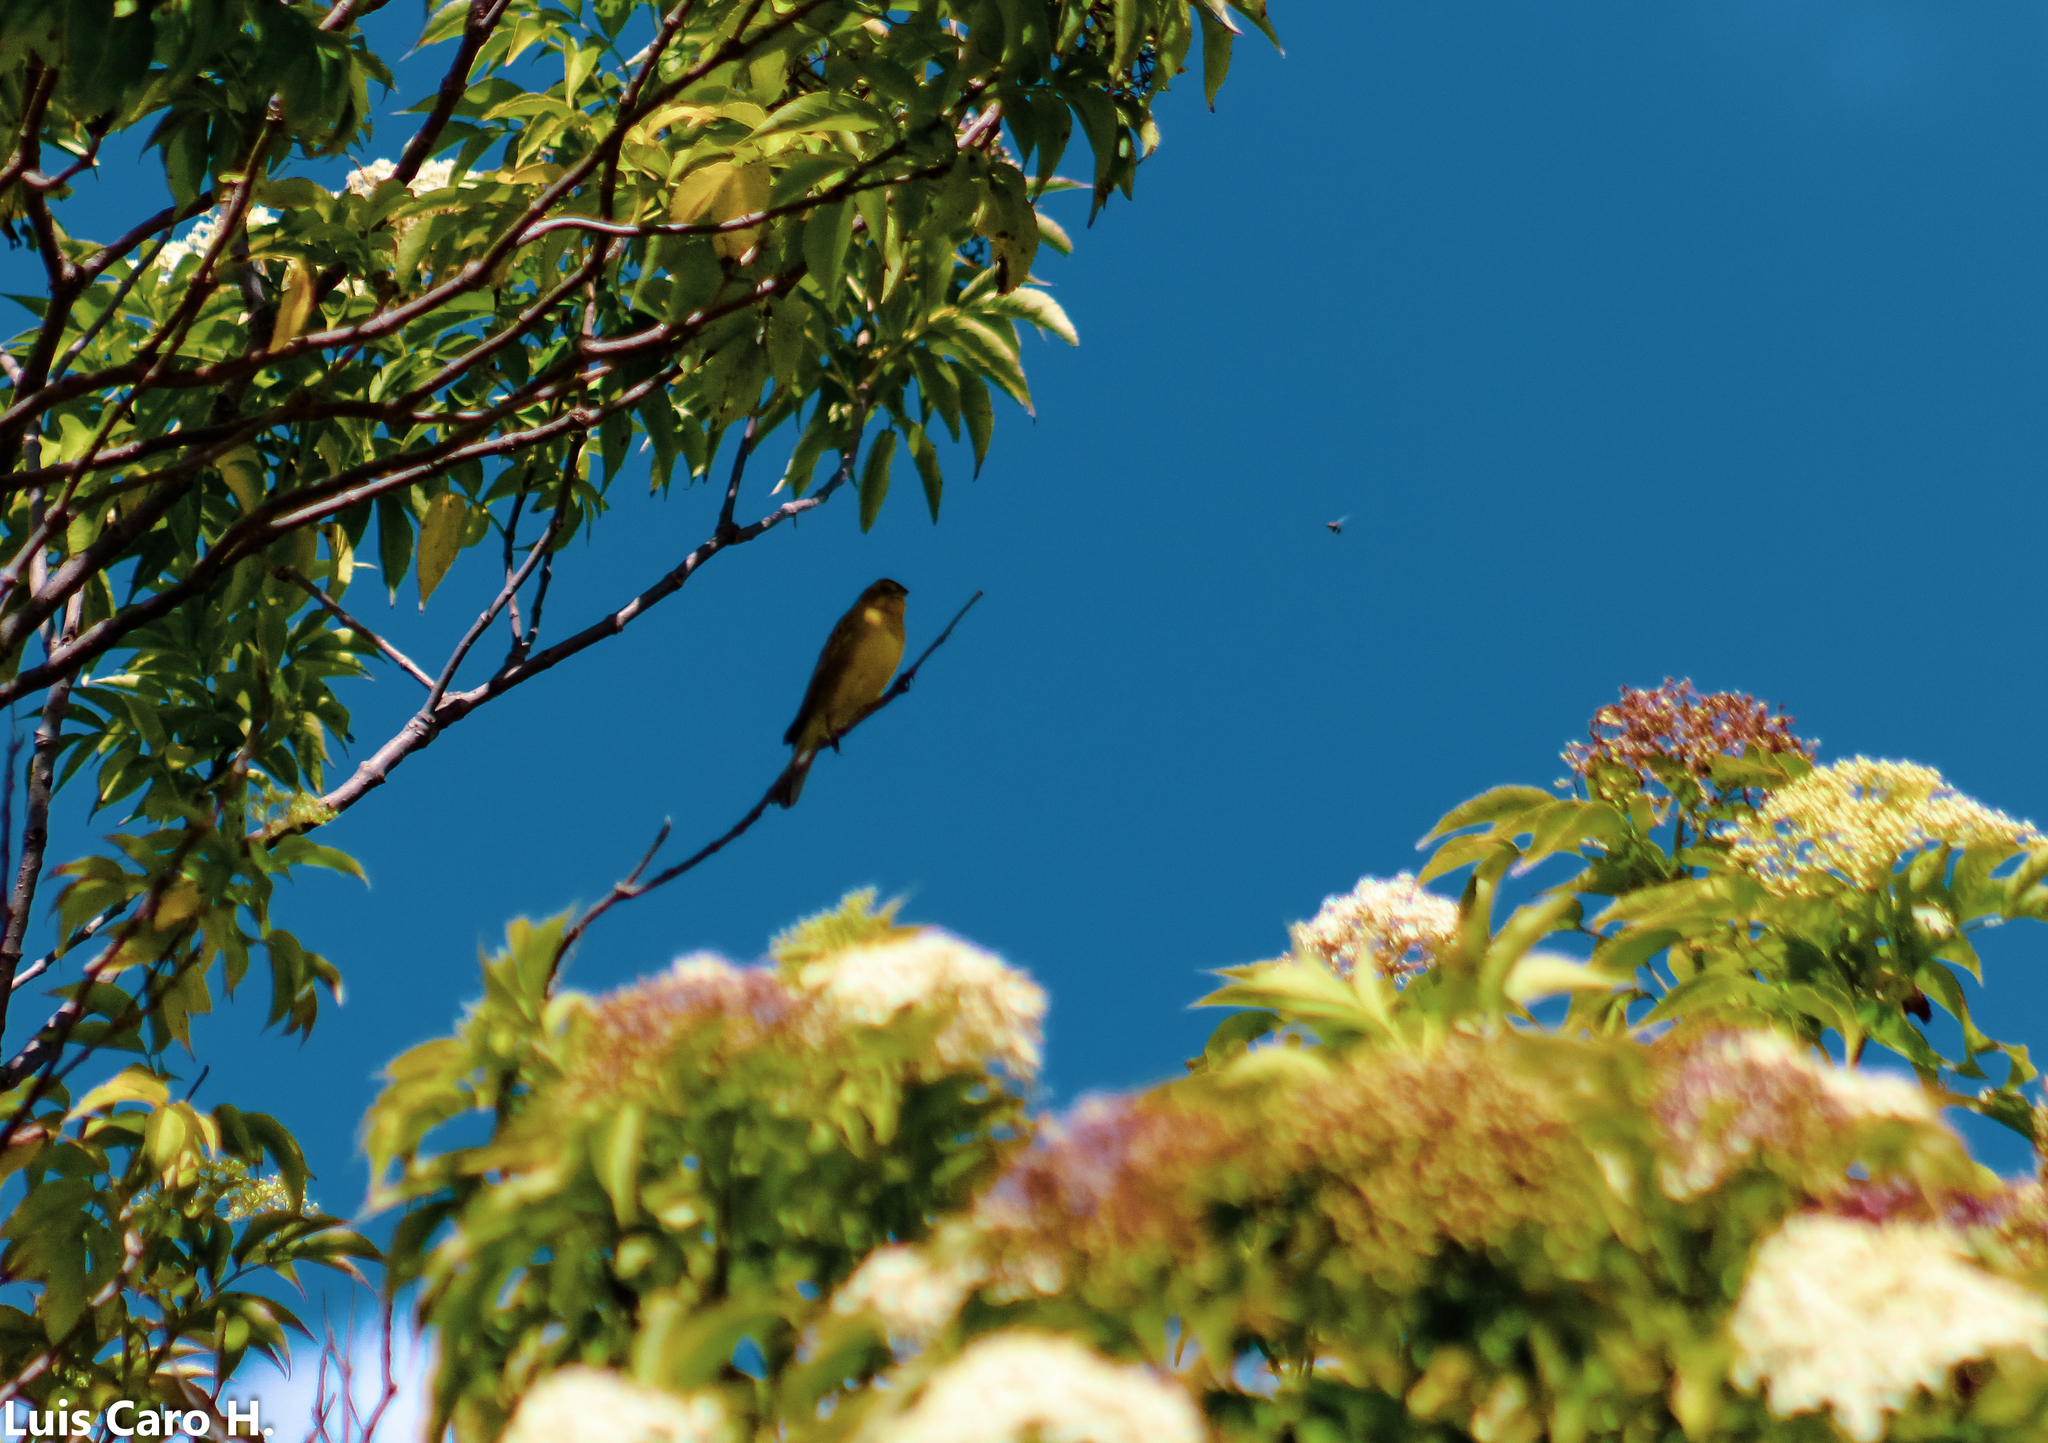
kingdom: Animalia
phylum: Chordata
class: Aves
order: Passeriformes
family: Thraupidae
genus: Sicalis
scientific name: Sicalis luteola
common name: Grassland yellow-finch
